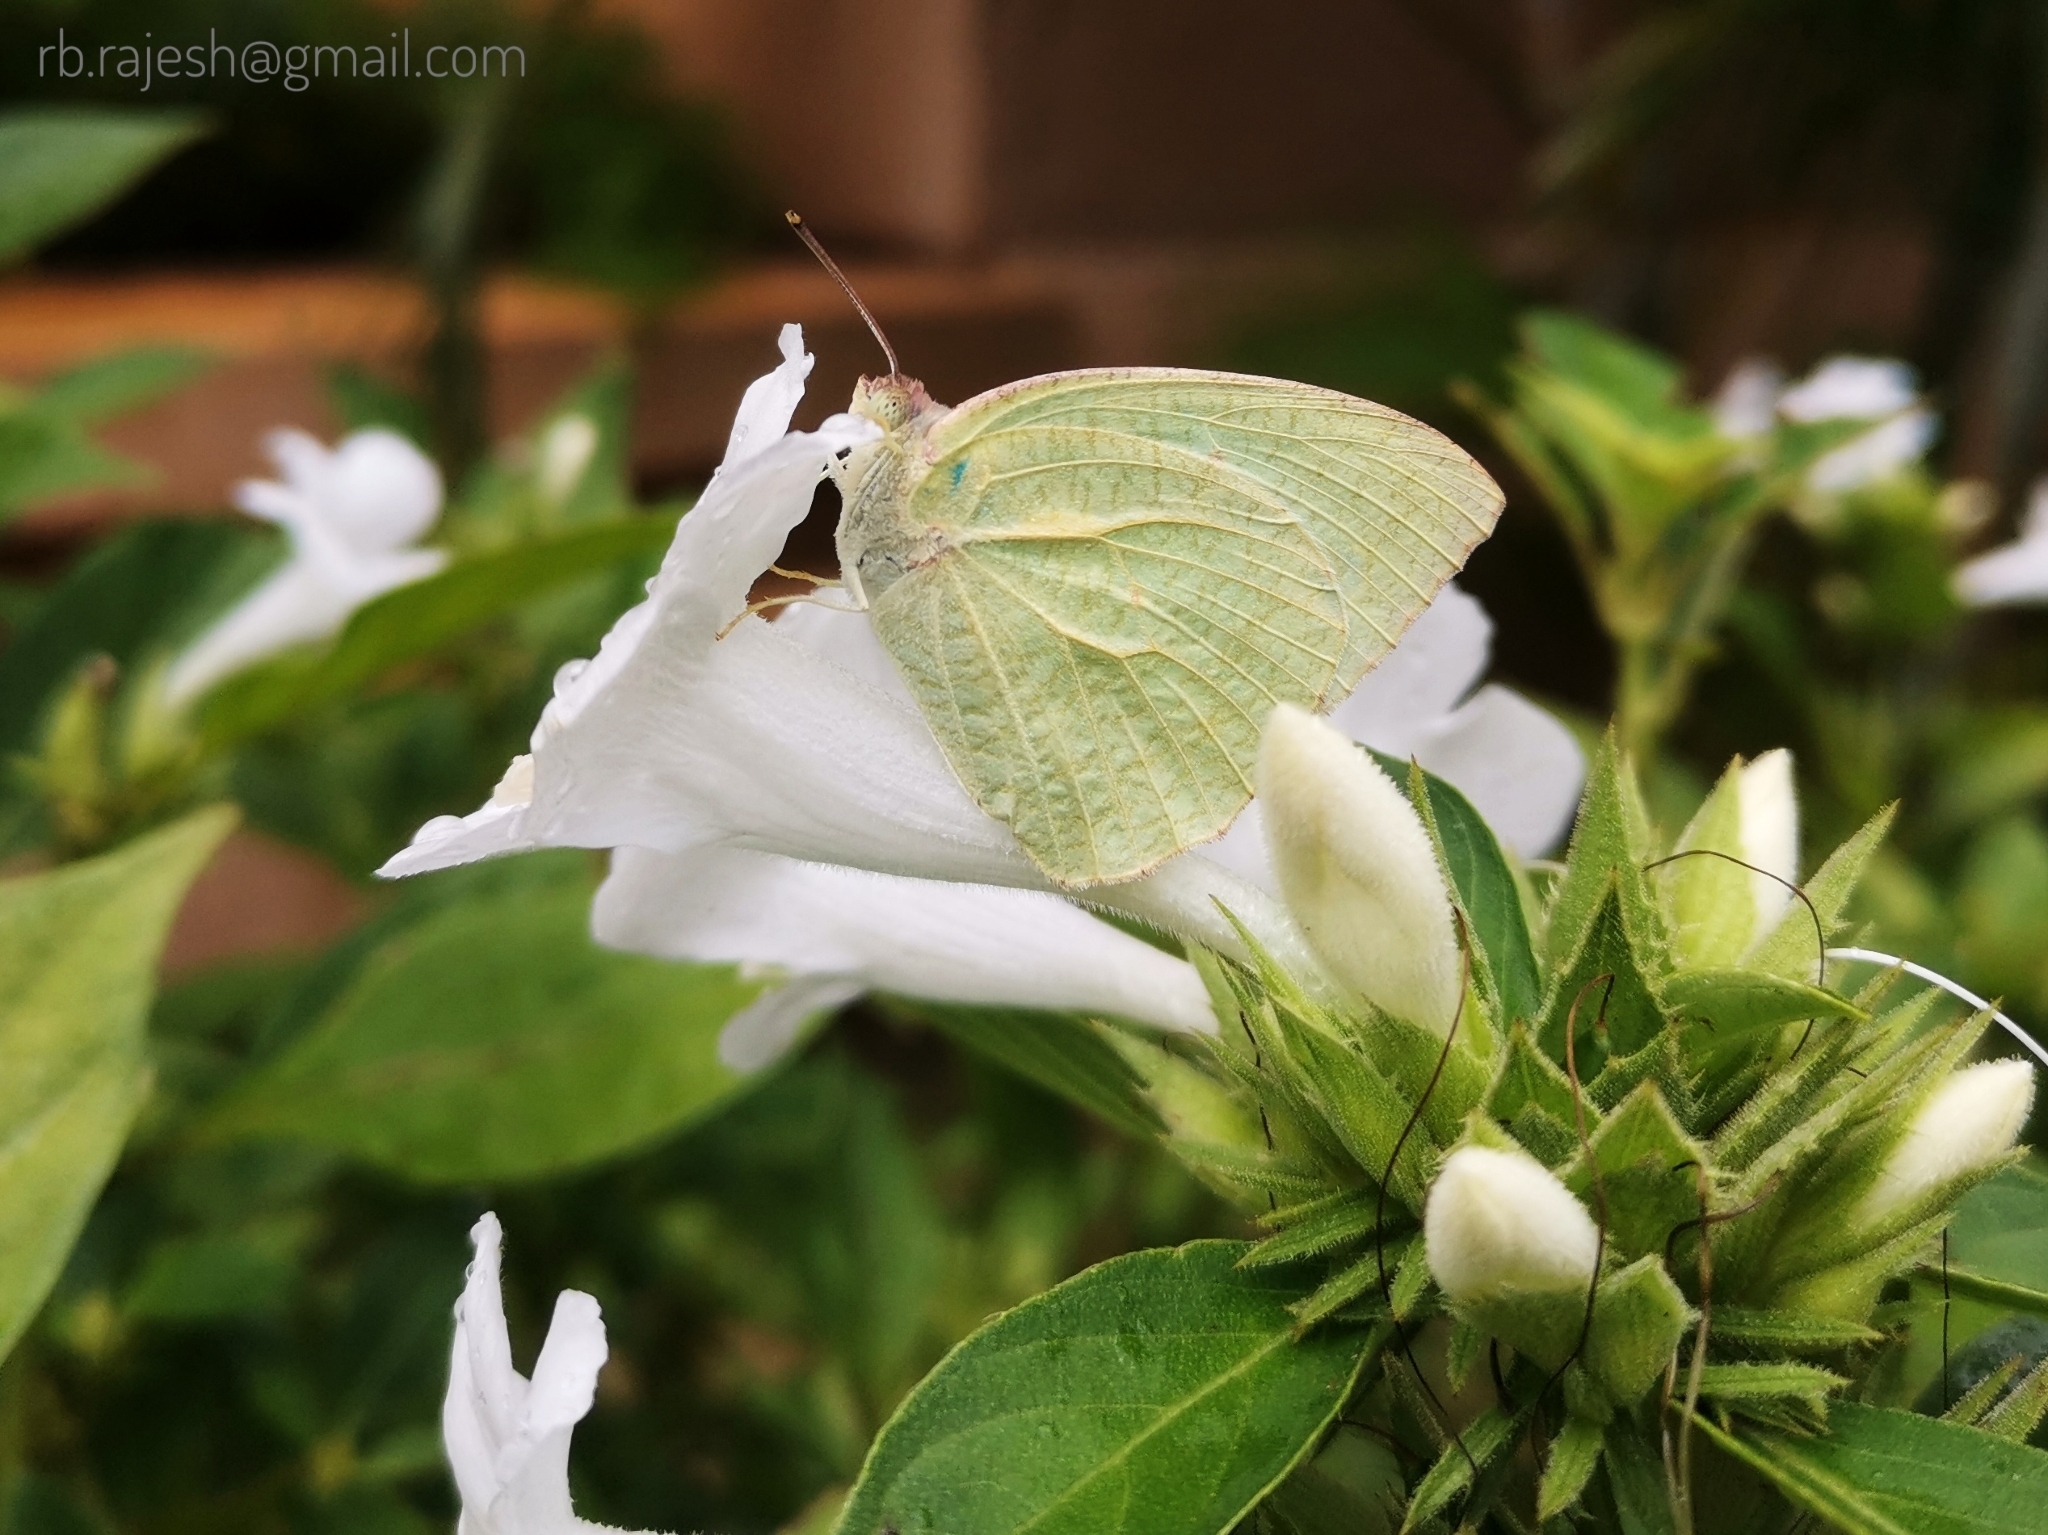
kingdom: Animalia
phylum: Arthropoda
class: Insecta
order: Lepidoptera
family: Pieridae
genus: Catopsilia
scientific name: Catopsilia pyranthe
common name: Mottled emigrant
